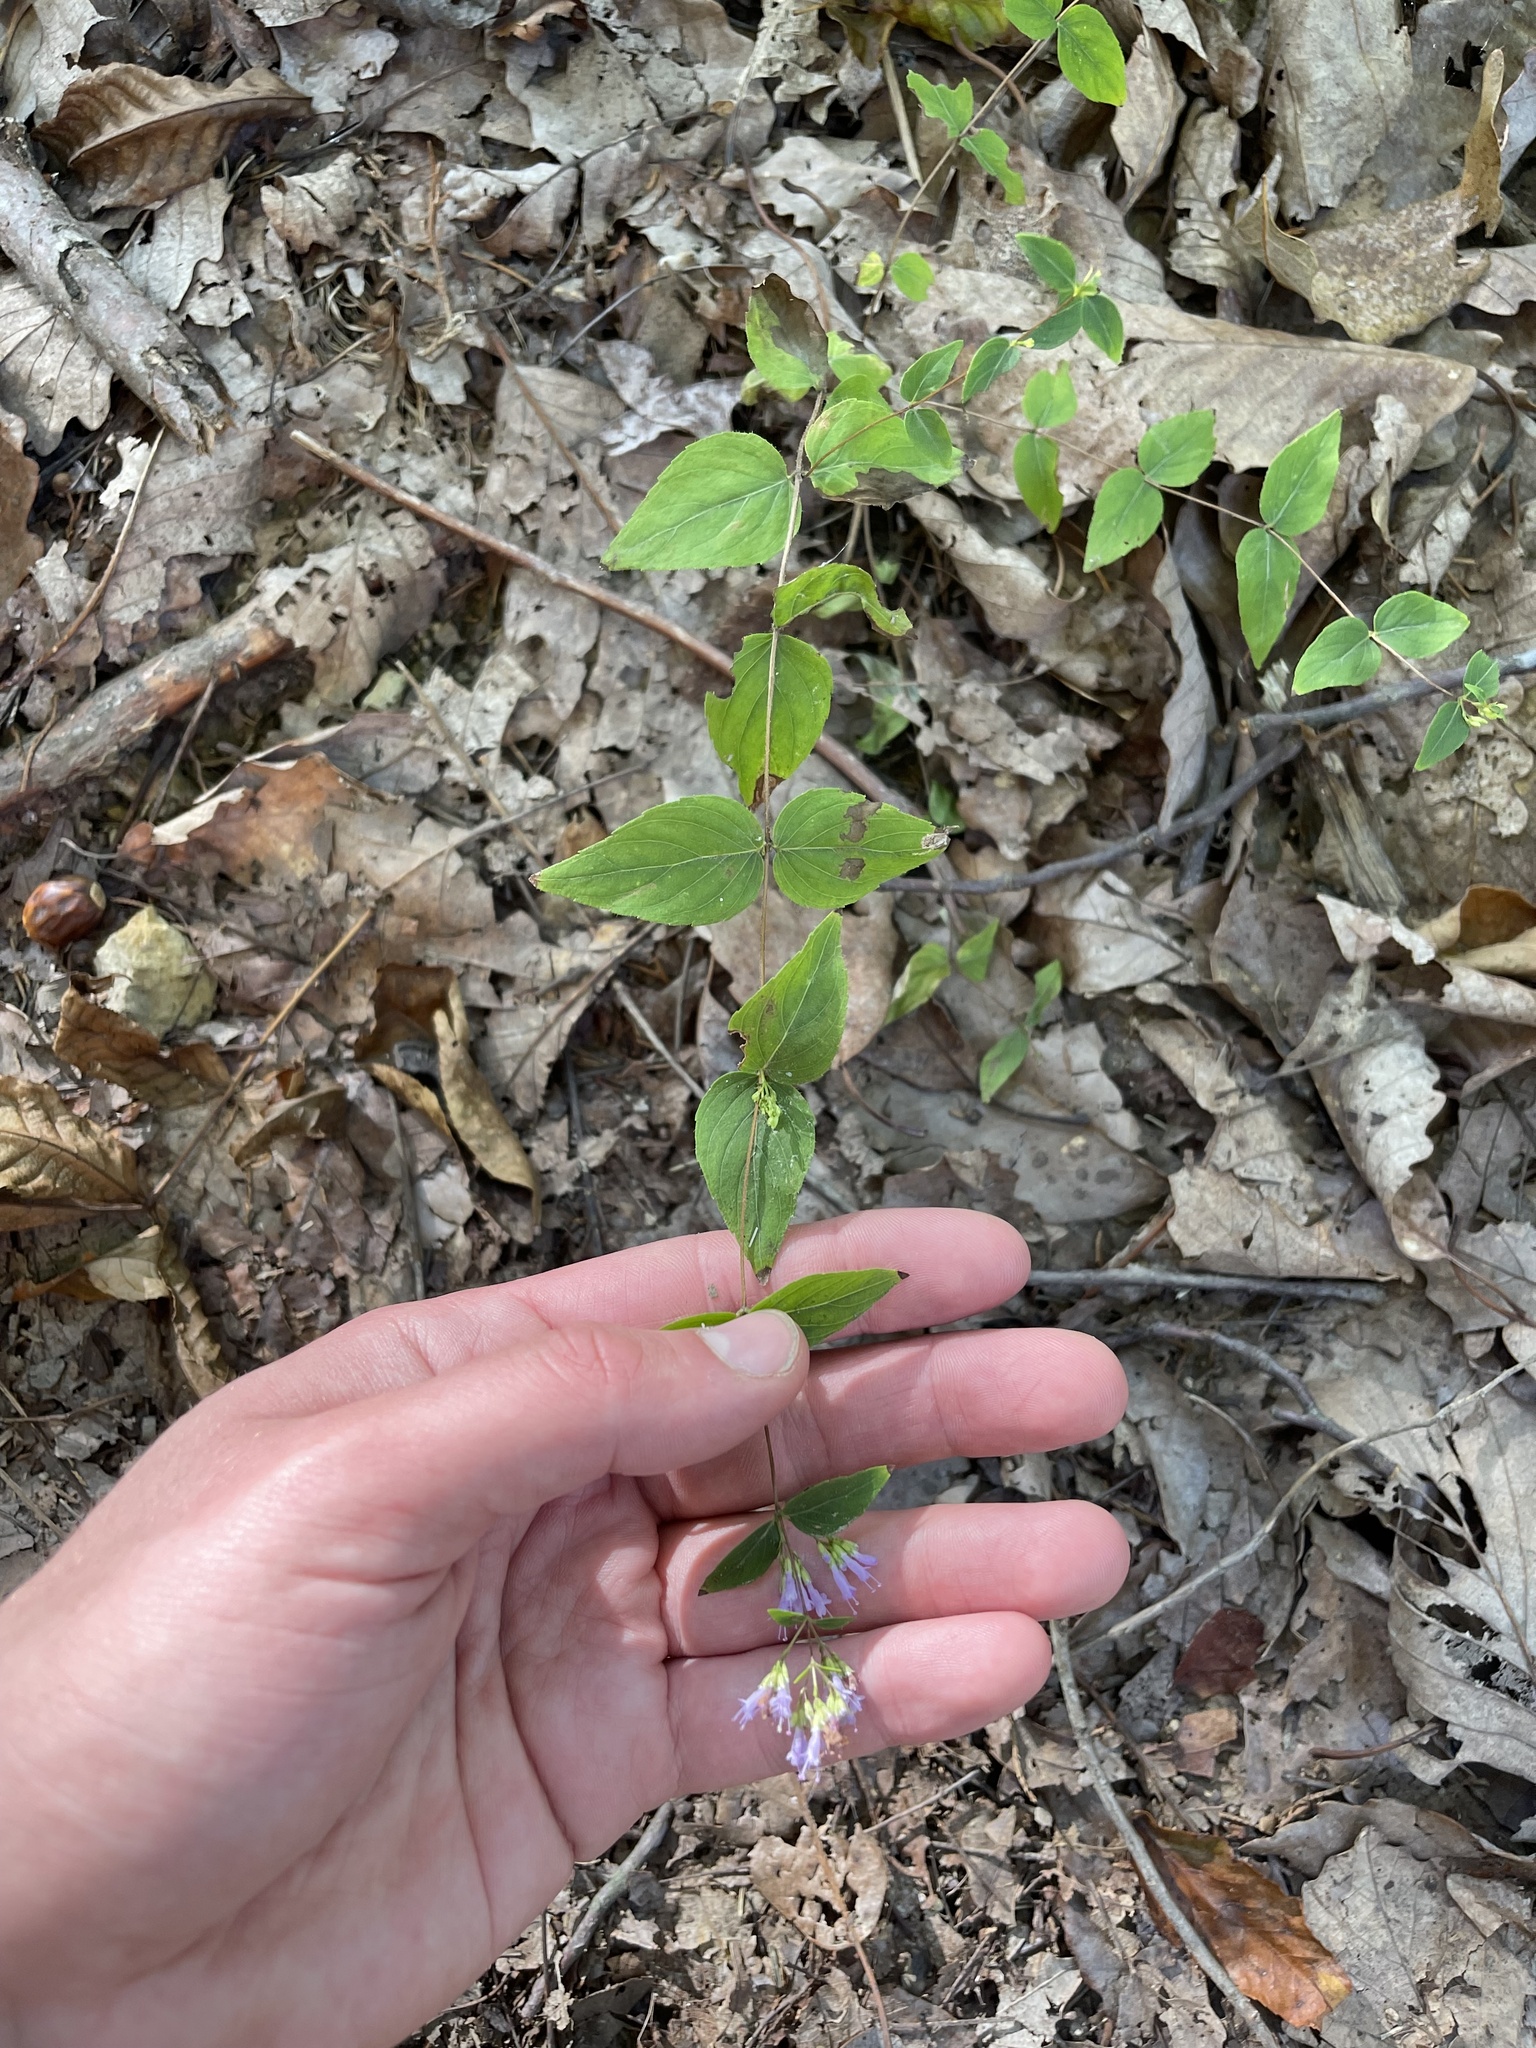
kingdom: Plantae
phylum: Tracheophyta
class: Magnoliopsida
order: Lamiales
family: Lamiaceae
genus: Cunila
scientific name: Cunila origanoides
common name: American dittany
